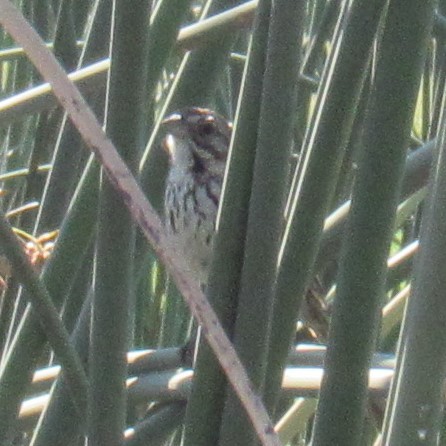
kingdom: Animalia
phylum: Chordata
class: Aves
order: Passeriformes
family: Passerellidae
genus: Melospiza
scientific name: Melospiza melodia
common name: Song sparrow
